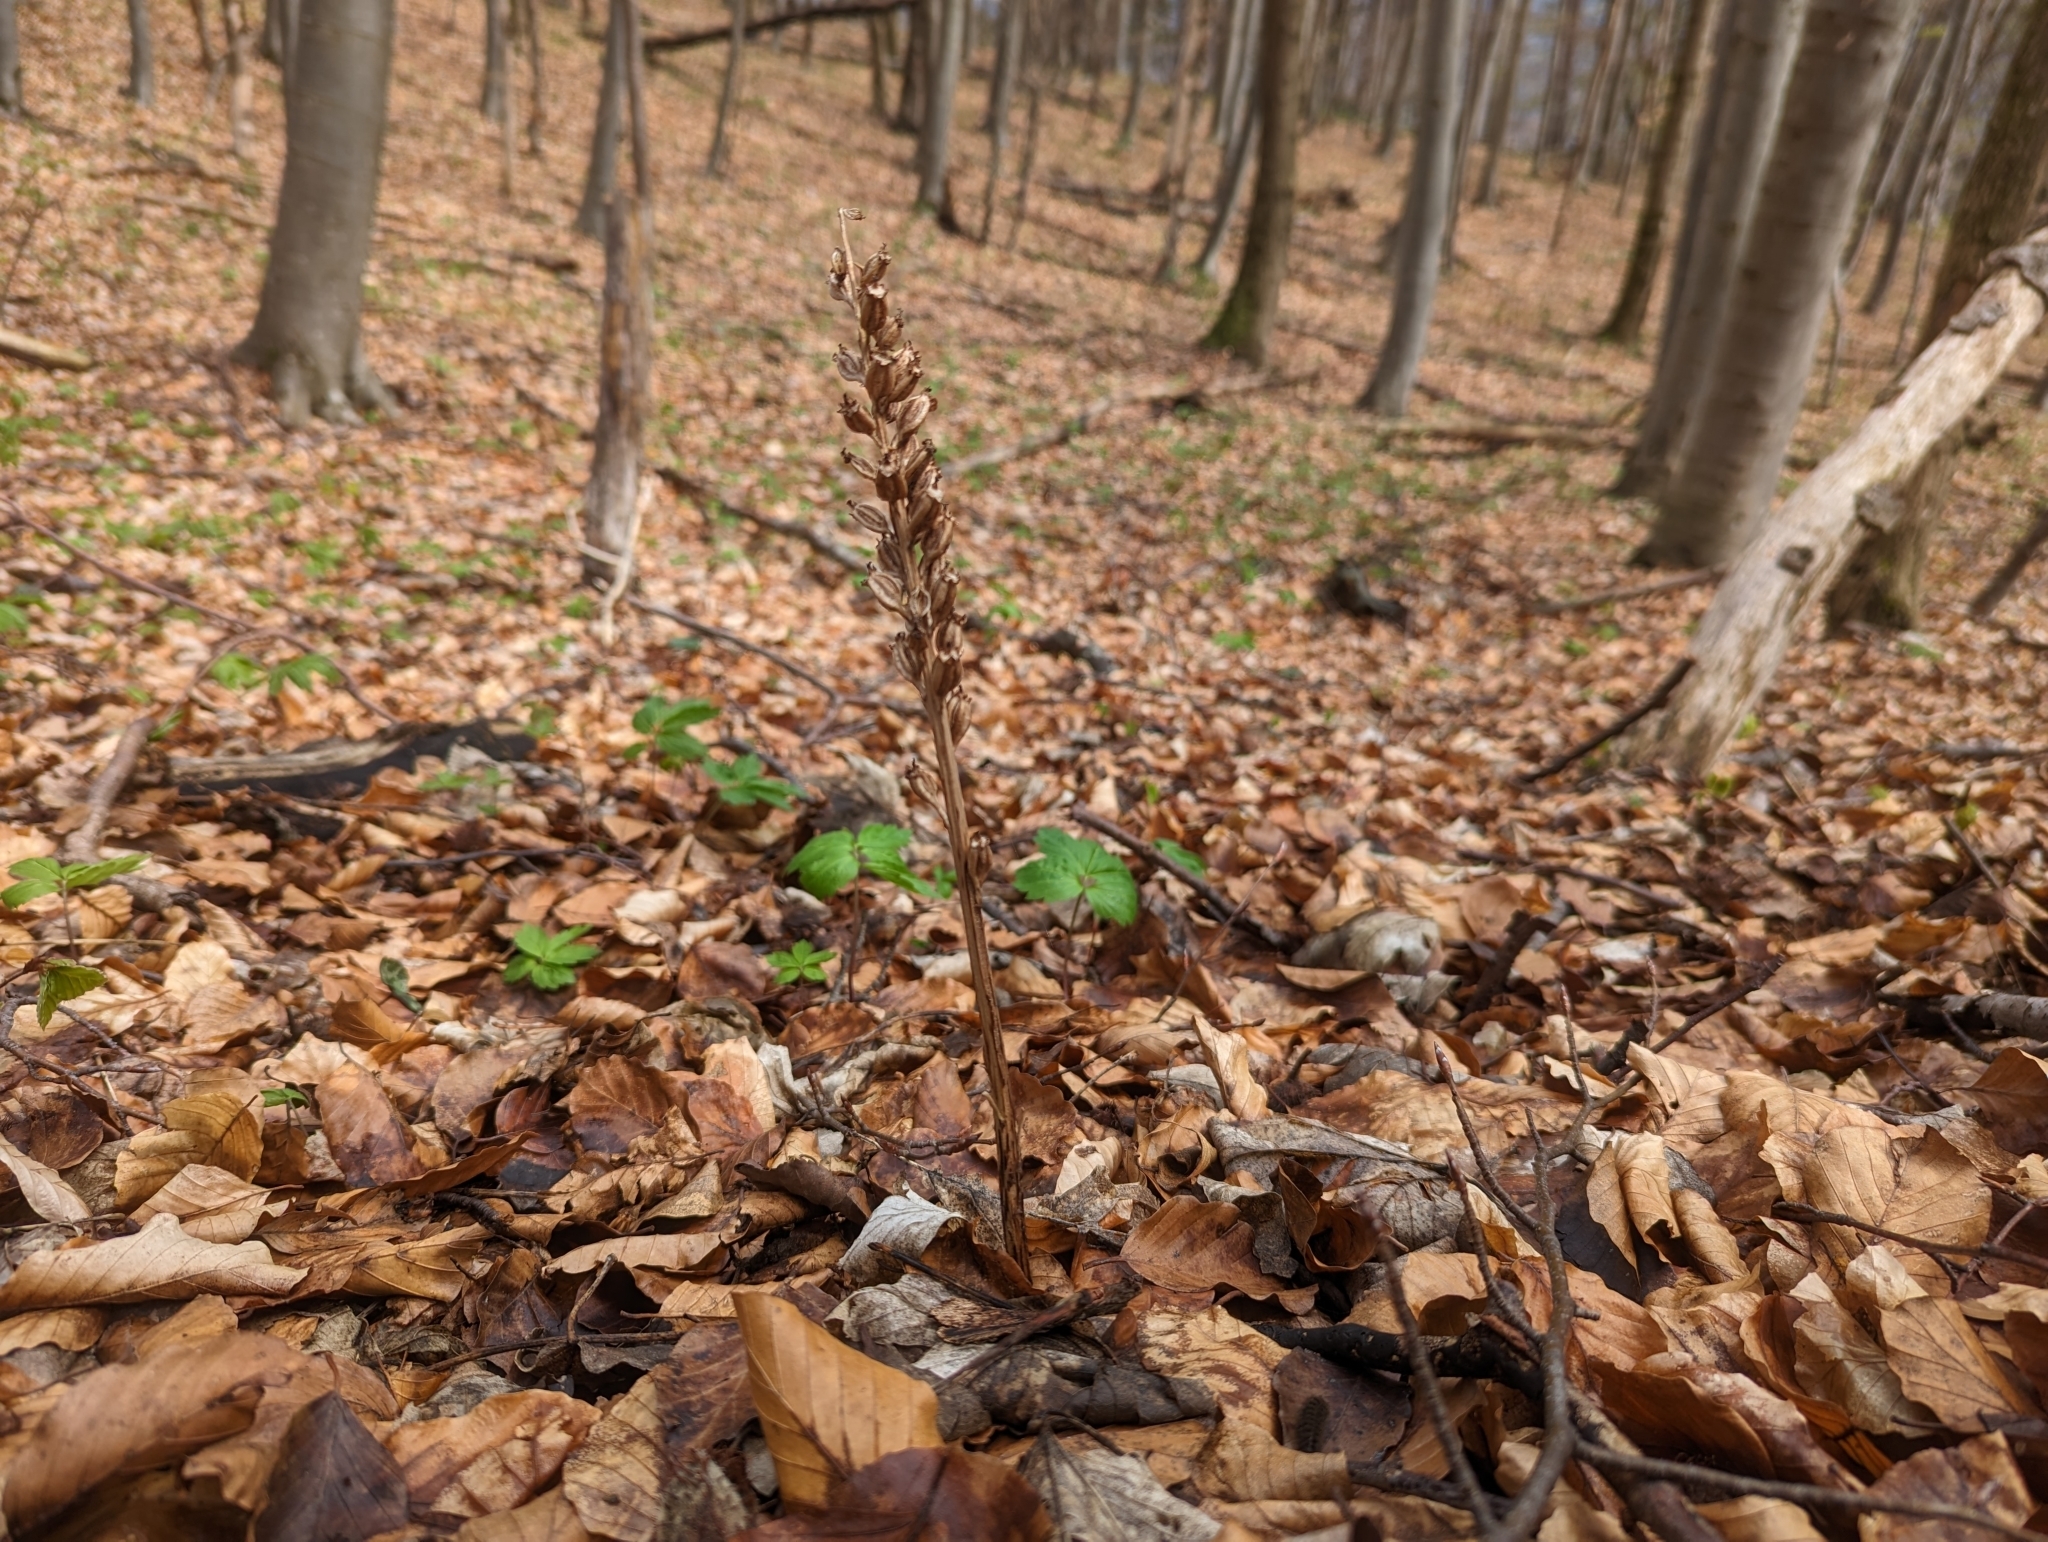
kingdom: Plantae
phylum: Tracheophyta
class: Liliopsida
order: Asparagales
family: Orchidaceae
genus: Neottia
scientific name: Neottia nidus-avis
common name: Bird's-nest orchid
